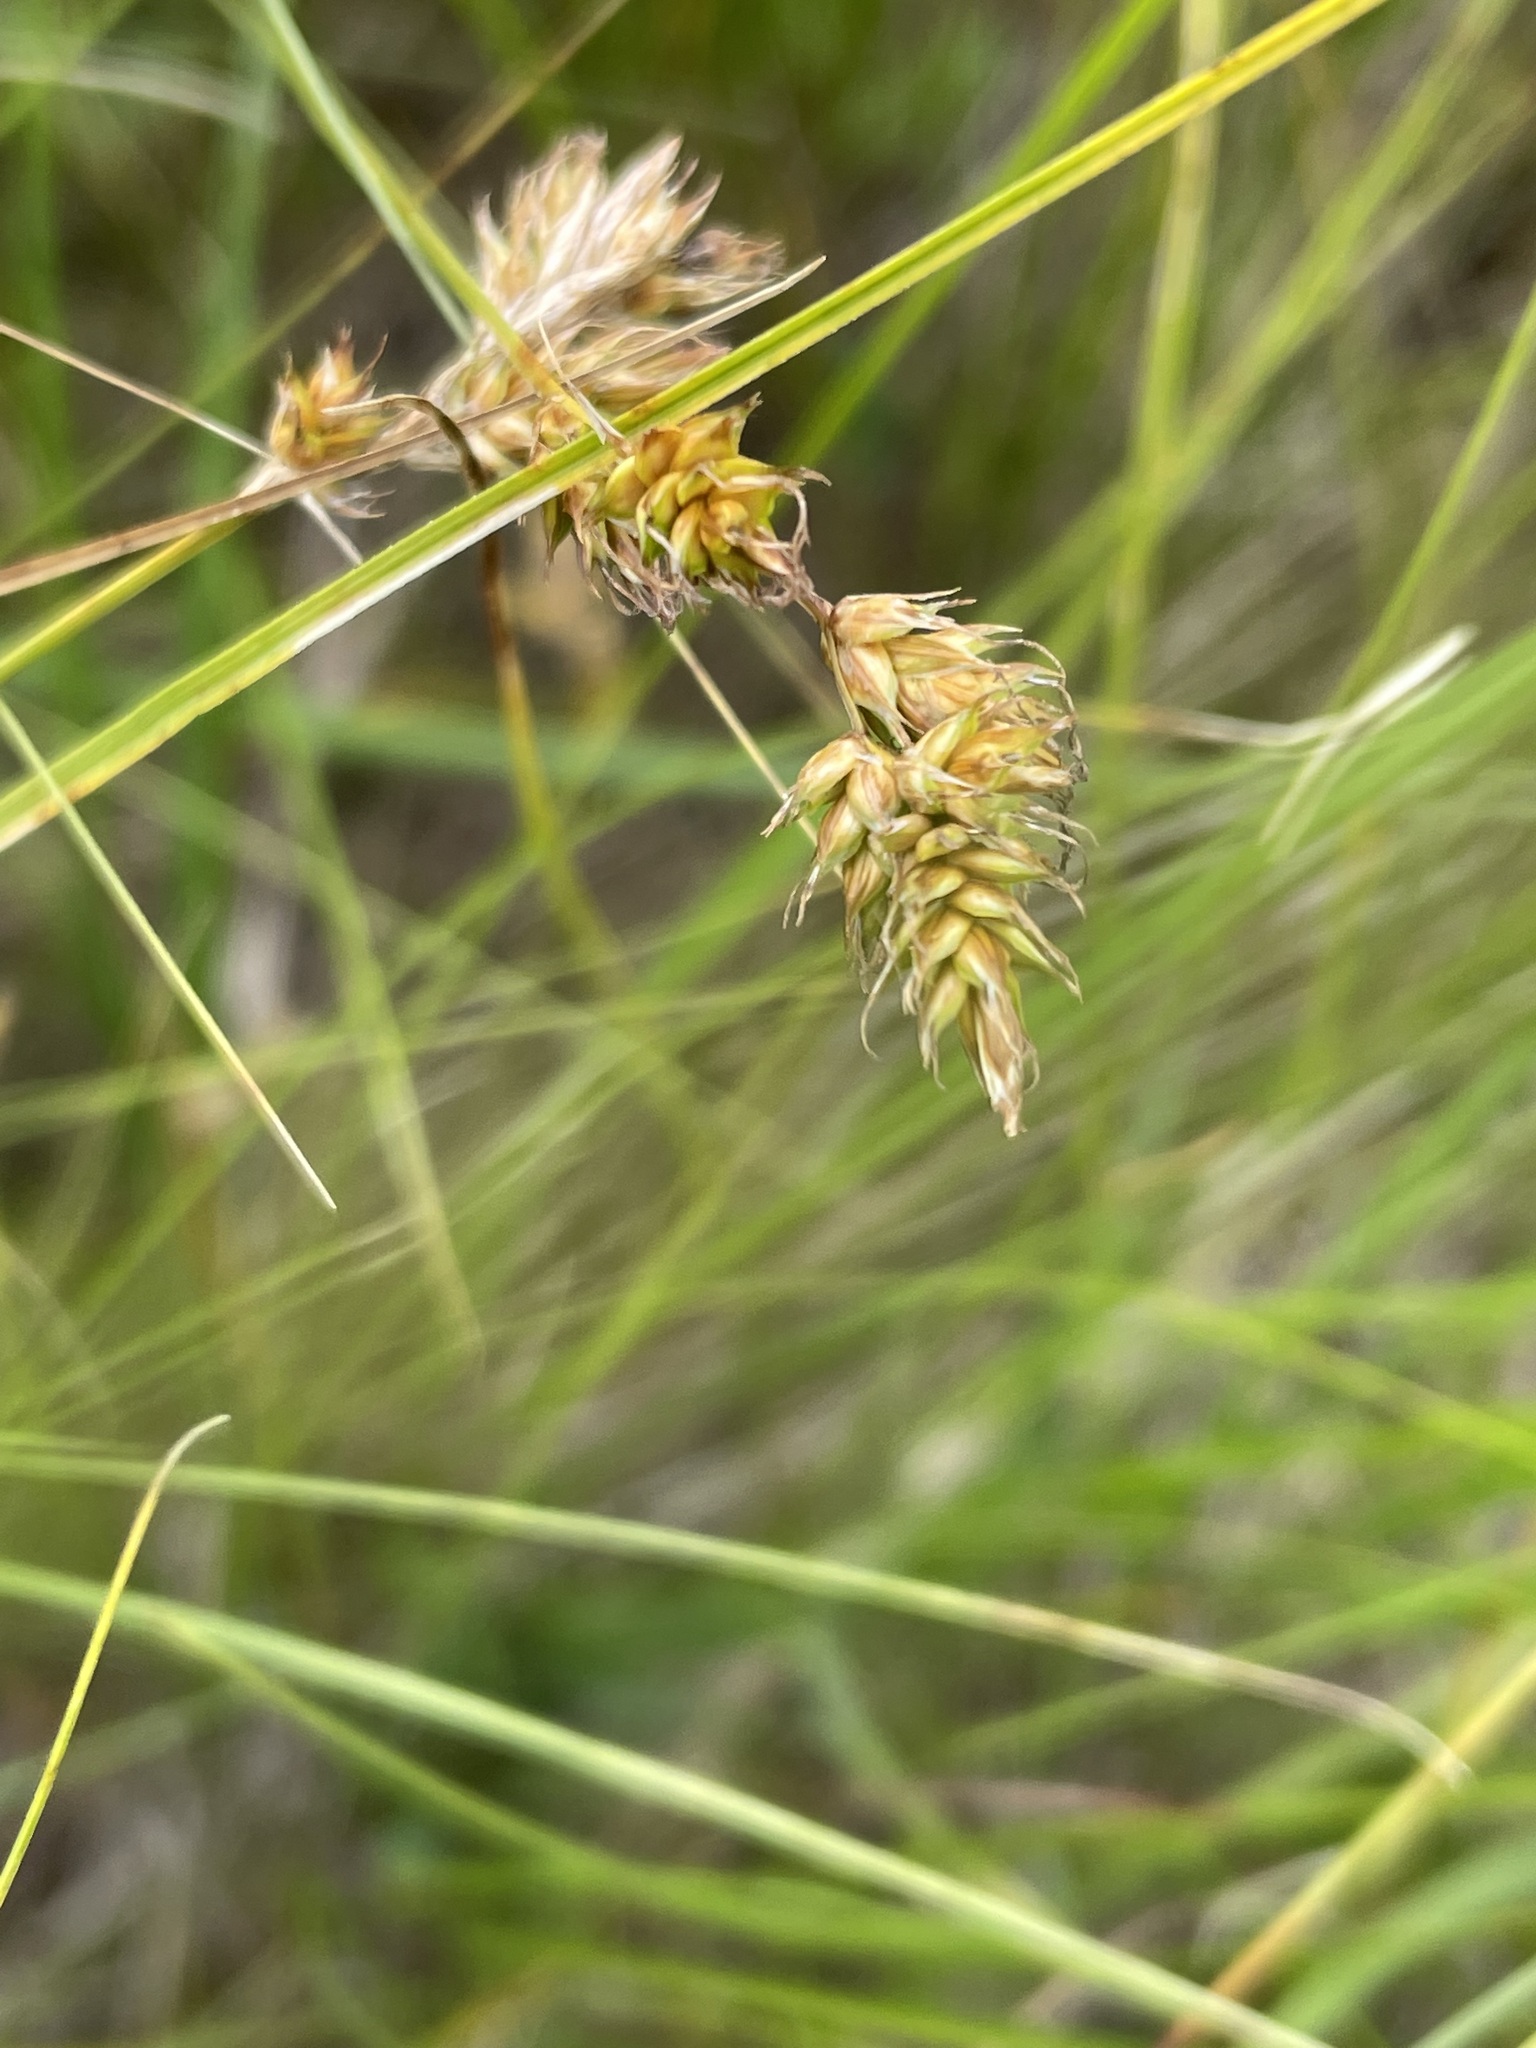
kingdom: Plantae
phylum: Tracheophyta
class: Liliopsida
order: Poales
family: Cyperaceae
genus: Carex
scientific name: Carex praecox
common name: Early sedge
